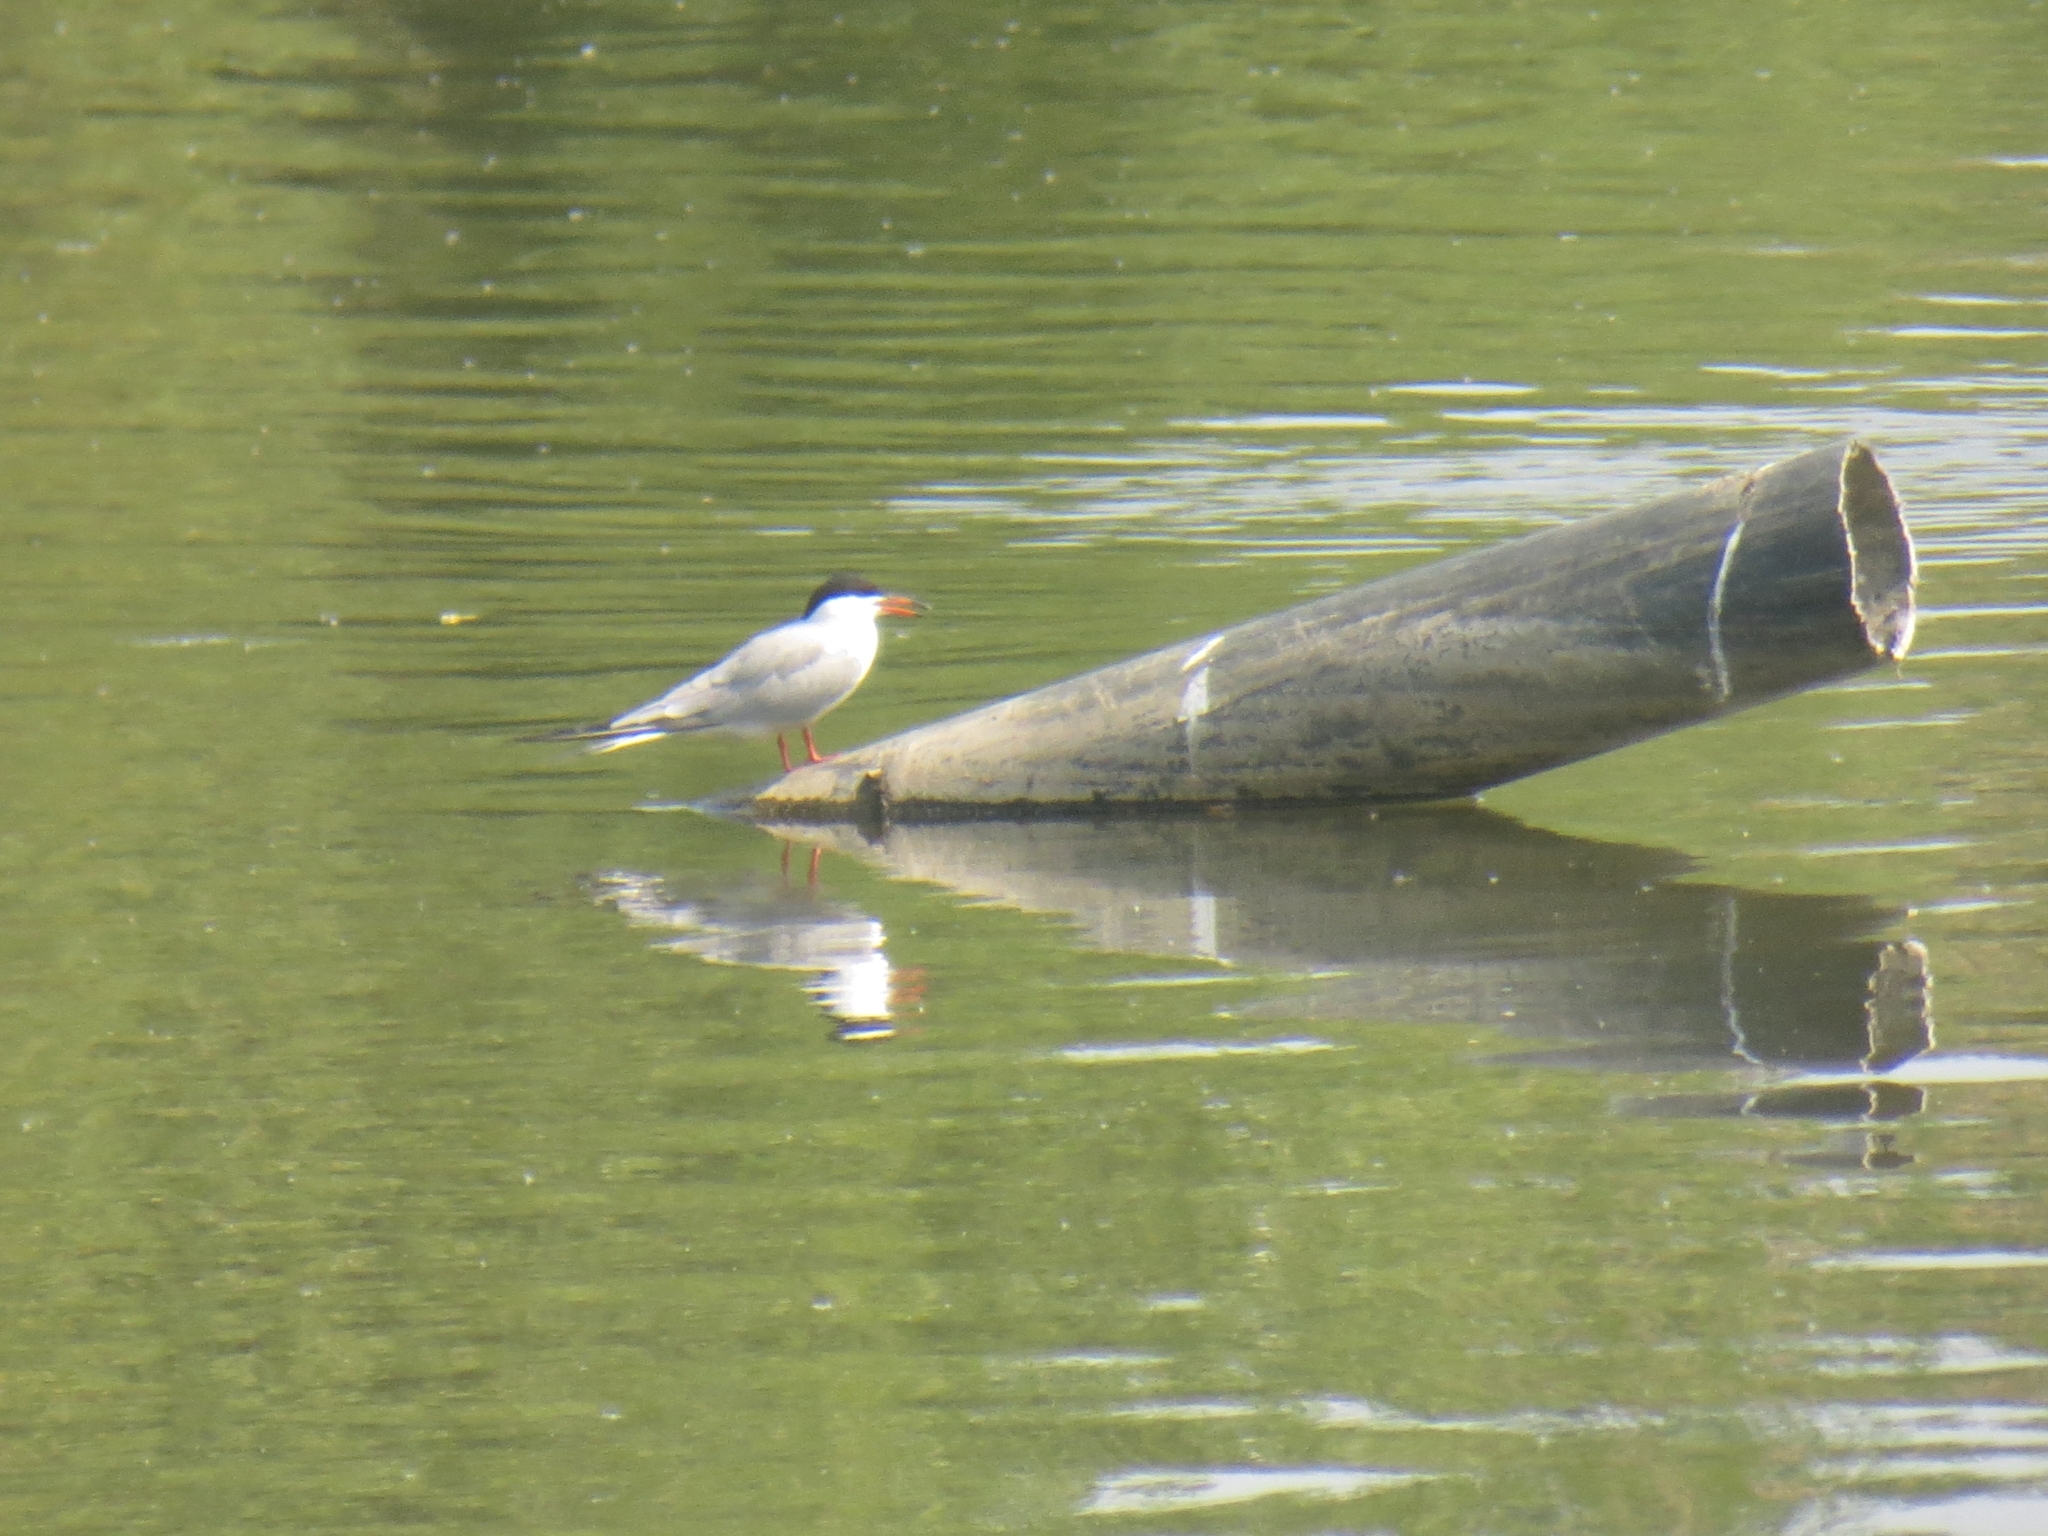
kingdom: Animalia
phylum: Chordata
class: Aves
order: Charadriiformes
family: Laridae
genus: Sterna
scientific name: Sterna hirundo
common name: Common tern
